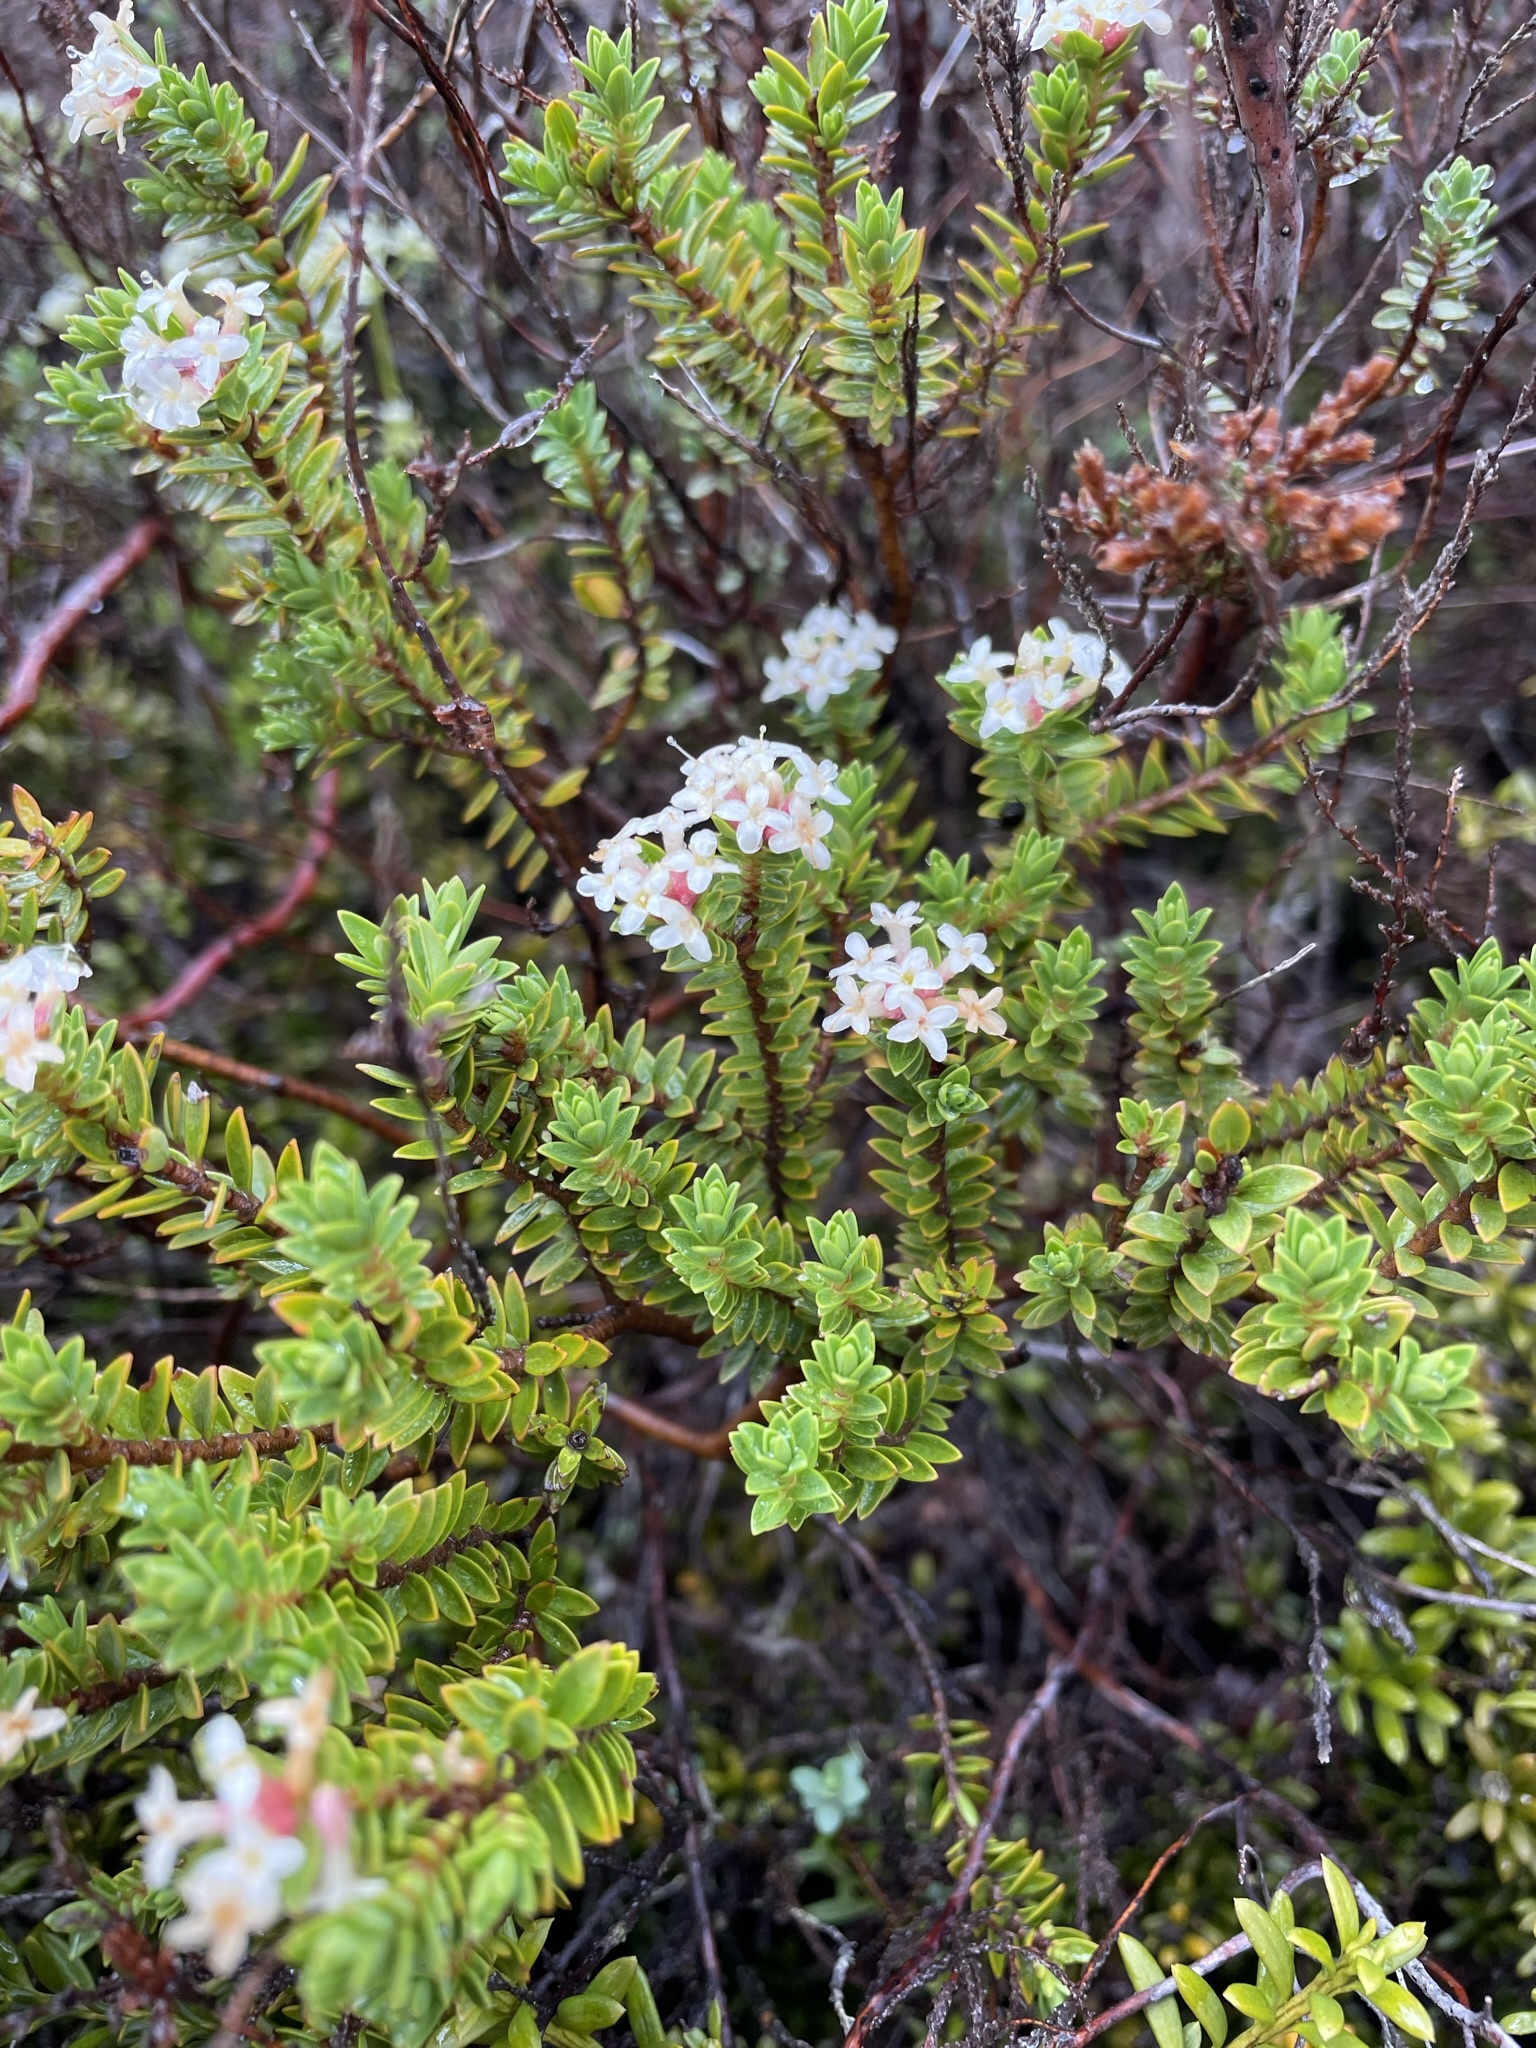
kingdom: Plantae
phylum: Tracheophyta
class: Magnoliopsida
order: Malvales
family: Thymelaeaceae
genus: Pimelea
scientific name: Pimelea buxifolia
